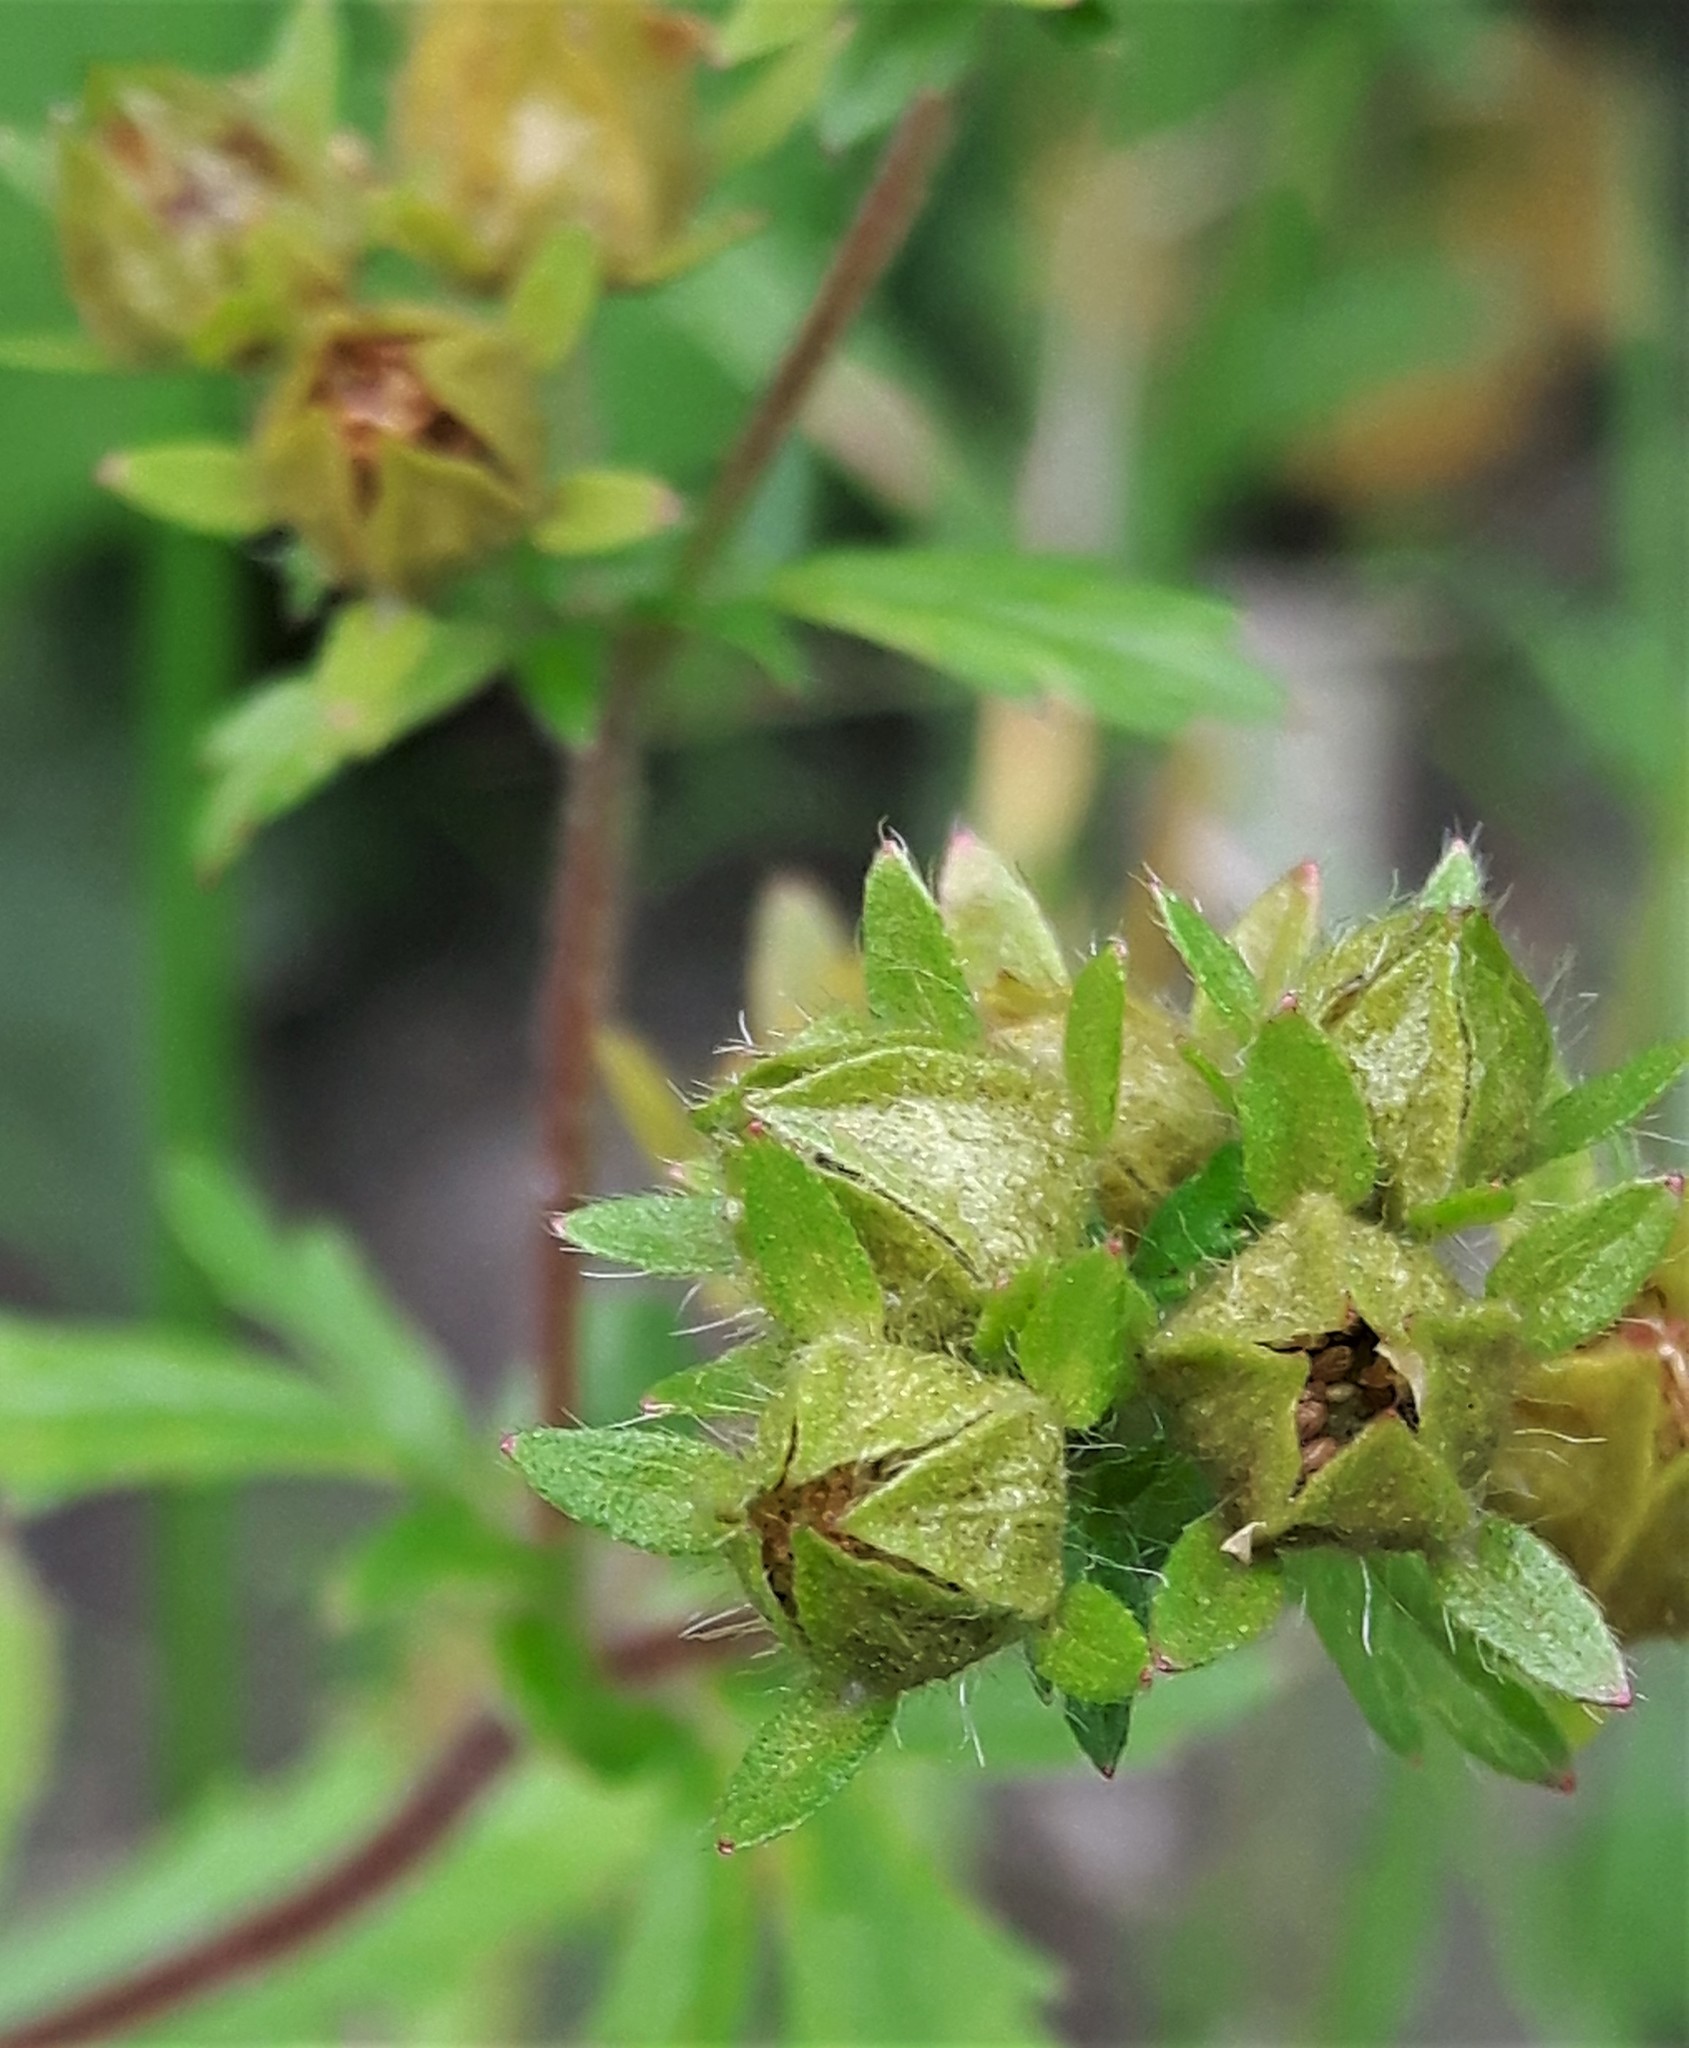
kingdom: Plantae
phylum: Tracheophyta
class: Magnoliopsida
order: Rosales
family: Rosaceae
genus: Potentilla
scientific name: Potentilla norvegica
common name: Ternate-leaved cinquefoil
